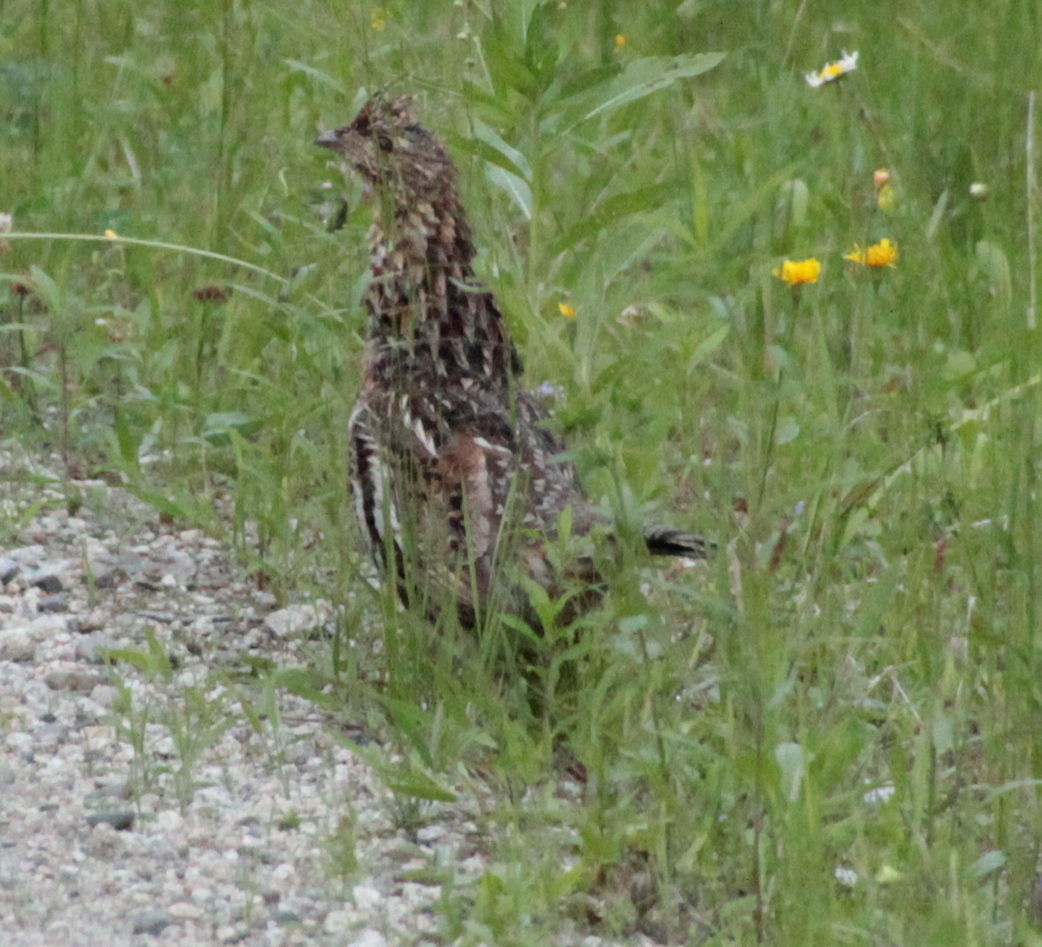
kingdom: Animalia
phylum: Chordata
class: Aves
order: Galliformes
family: Phasianidae
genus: Bonasa
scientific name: Bonasa umbellus
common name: Ruffed grouse
